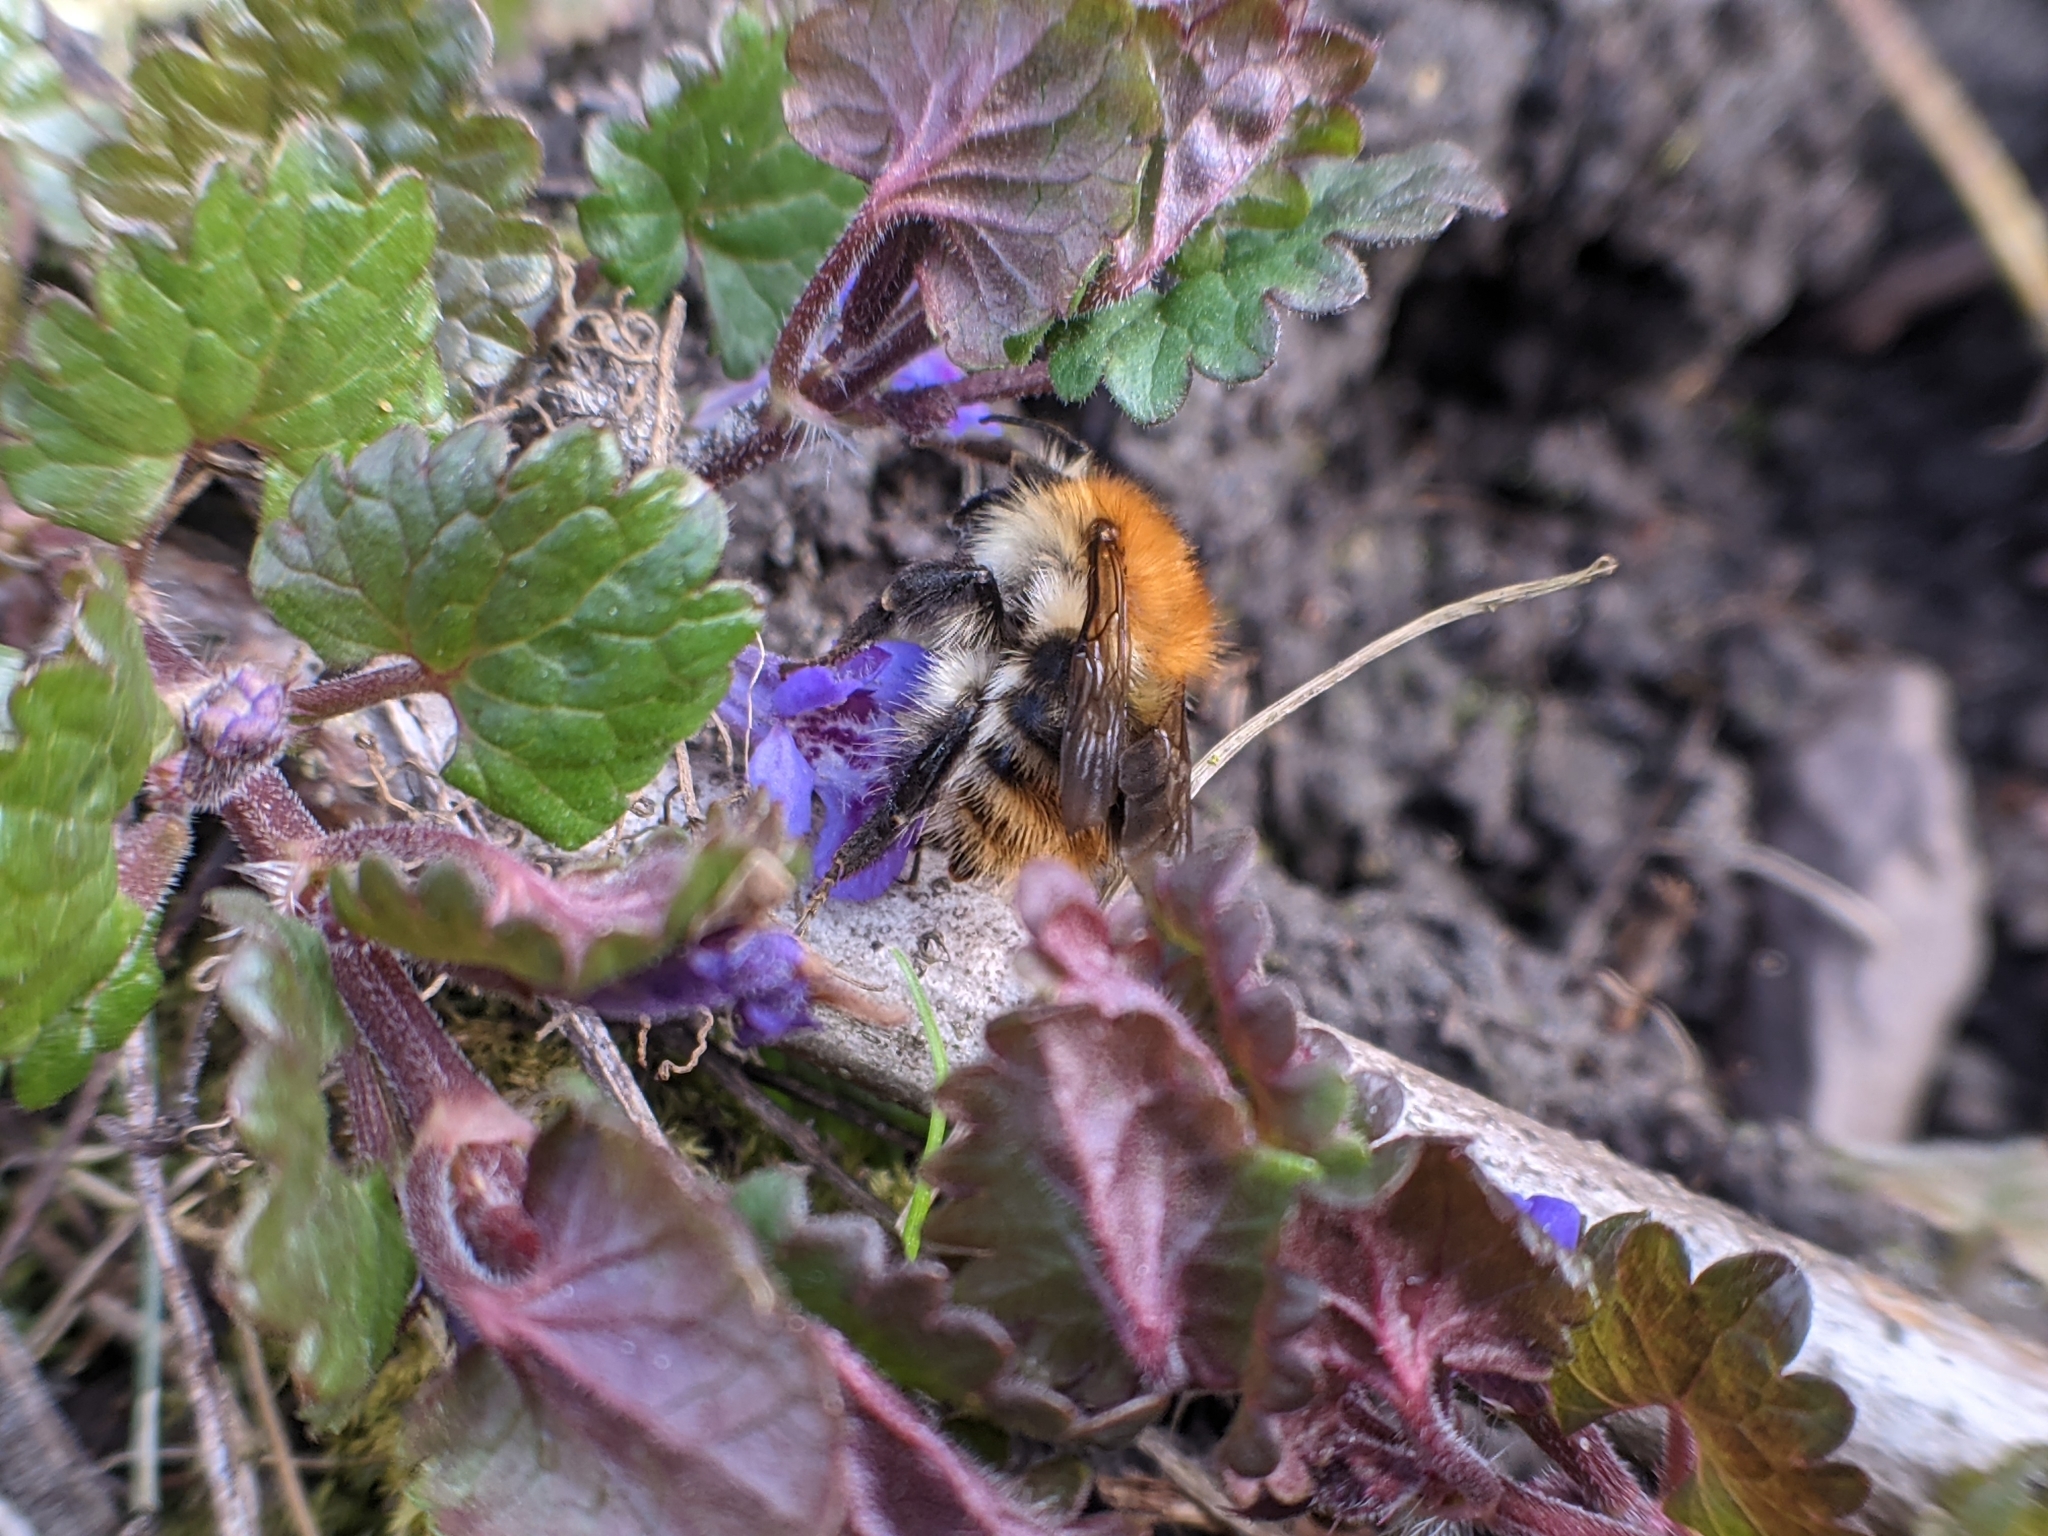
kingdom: Animalia
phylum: Arthropoda
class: Insecta
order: Hymenoptera
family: Apidae
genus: Bombus
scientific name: Bombus pascuorum
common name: Common carder bee
